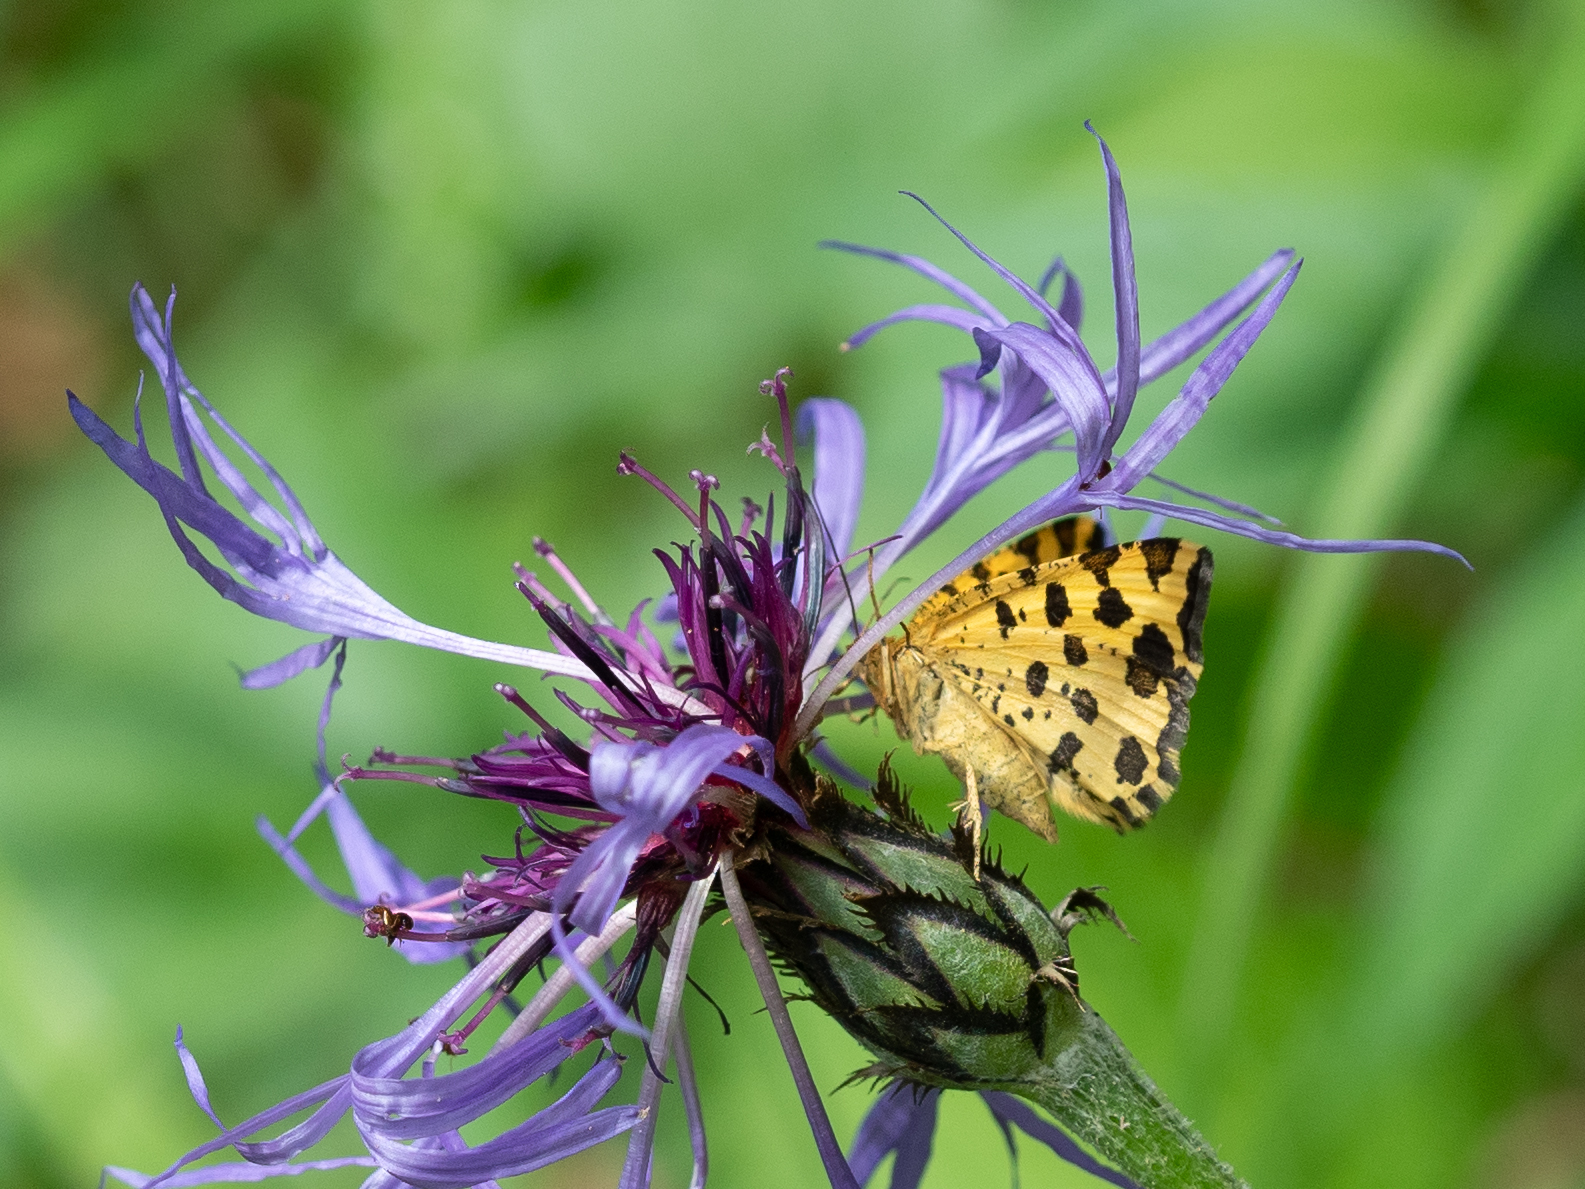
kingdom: Animalia
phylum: Arthropoda
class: Insecta
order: Lepidoptera
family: Geometridae
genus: Pseudopanthera
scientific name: Pseudopanthera macularia
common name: Speckled yellow
